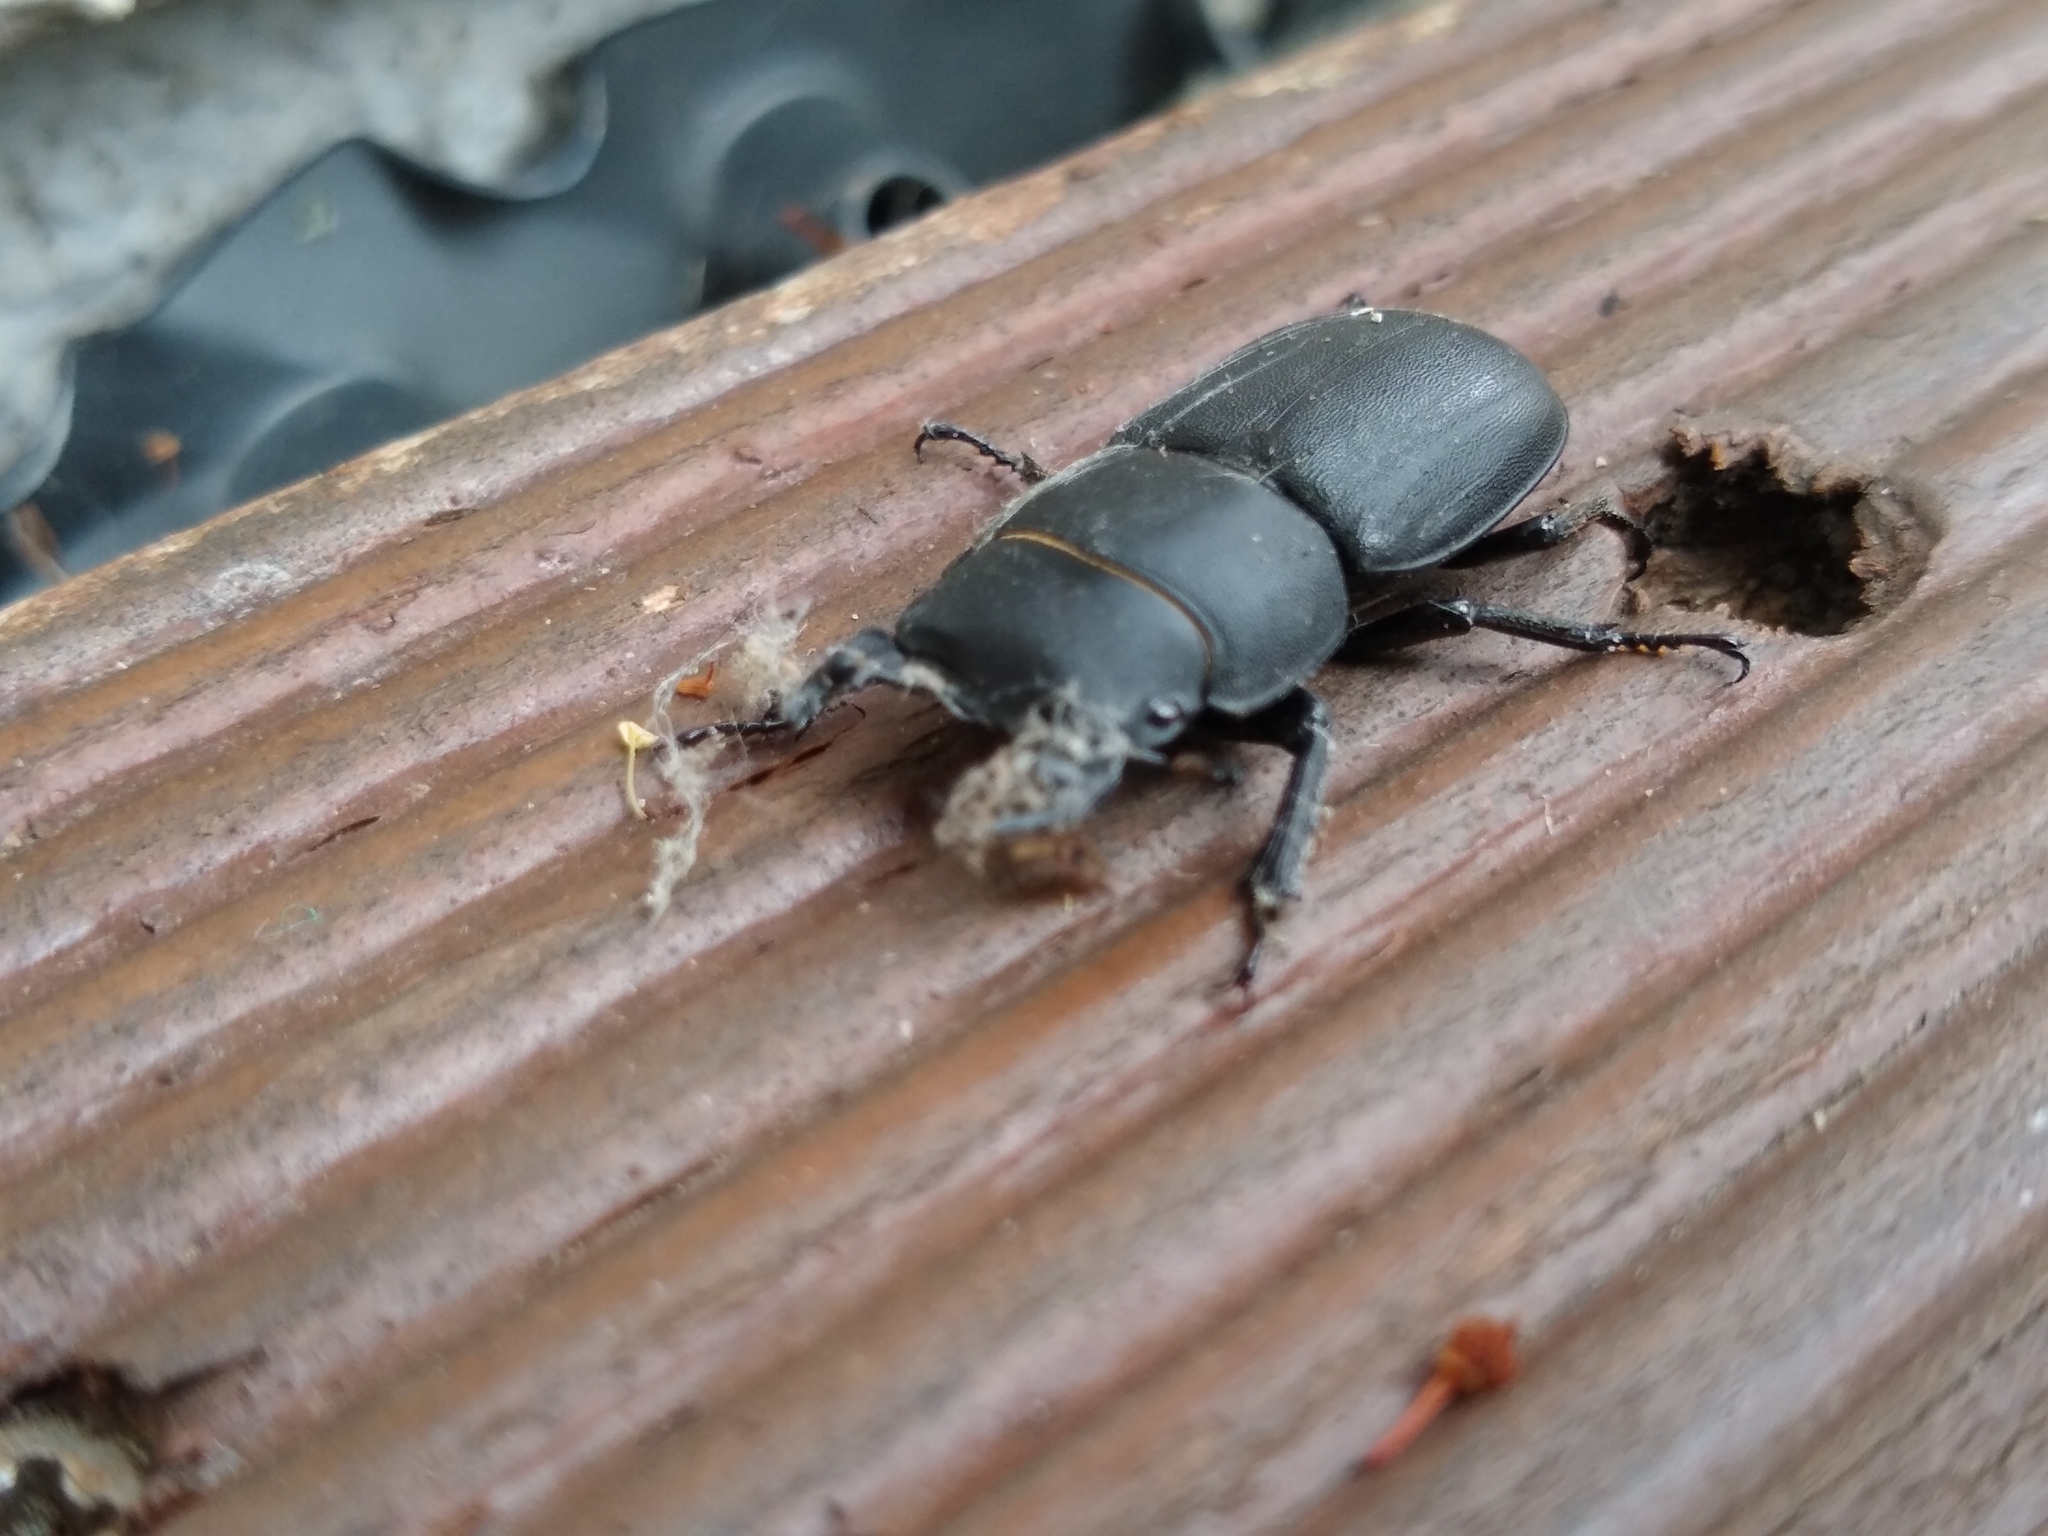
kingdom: Animalia
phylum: Arthropoda
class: Insecta
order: Coleoptera
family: Lucanidae
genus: Dorcus
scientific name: Dorcus parallelipipedus
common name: Lesser stag beetle
